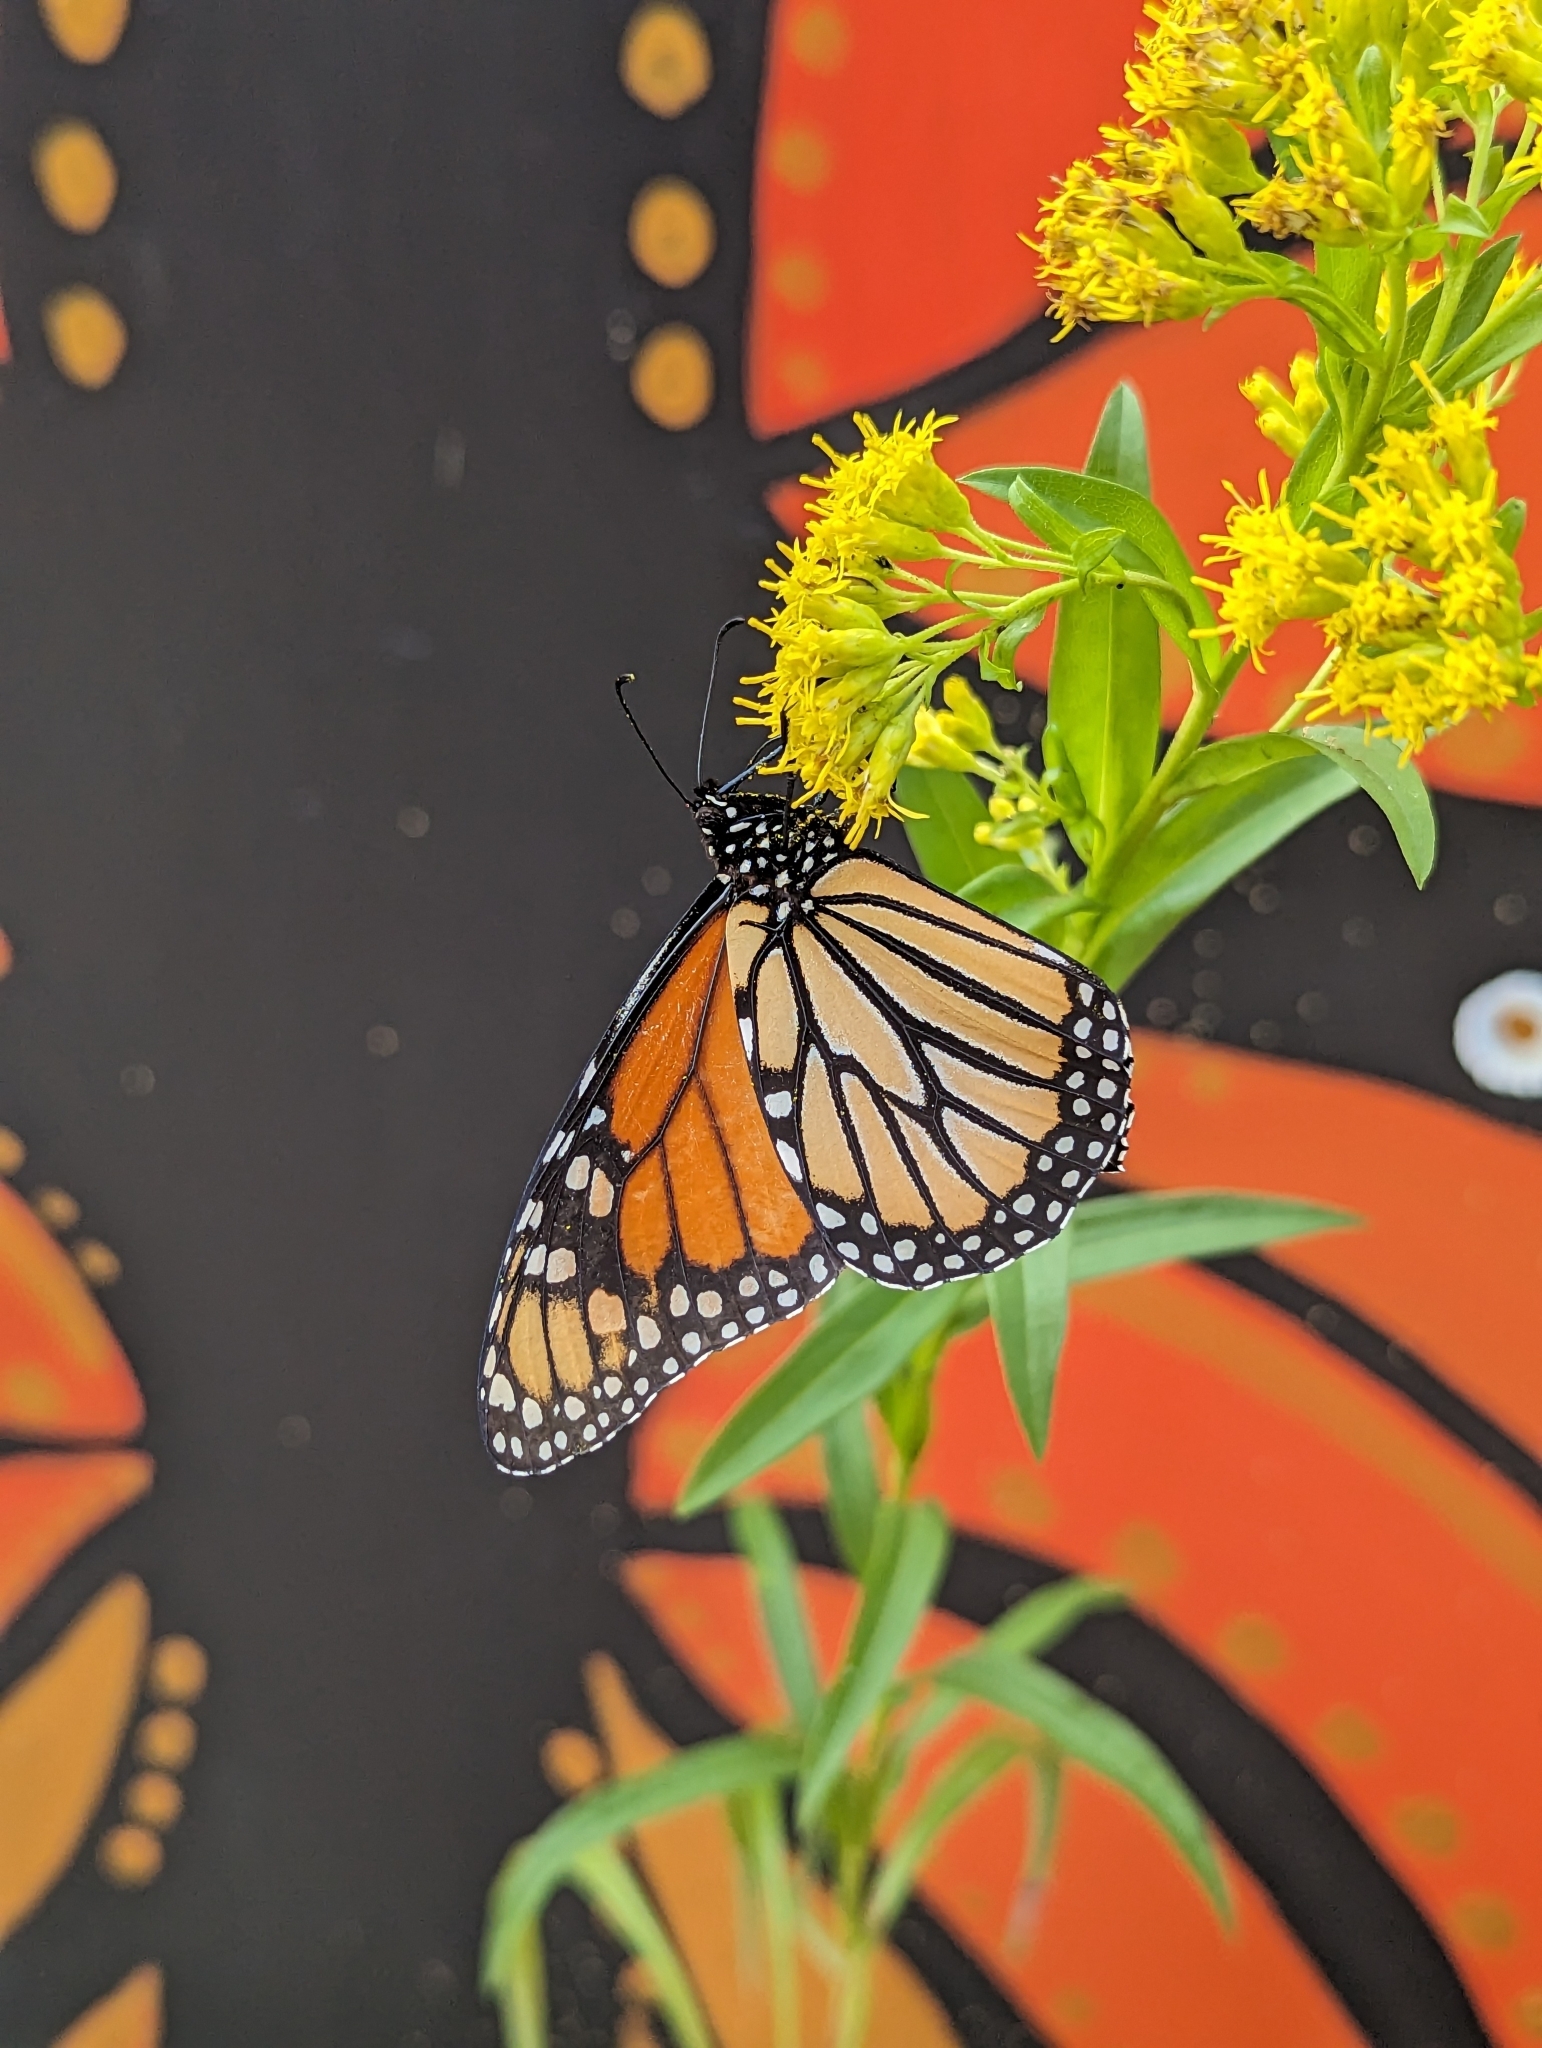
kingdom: Animalia
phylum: Arthropoda
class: Insecta
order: Lepidoptera
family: Nymphalidae
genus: Danaus
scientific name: Danaus plexippus
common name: Monarch
